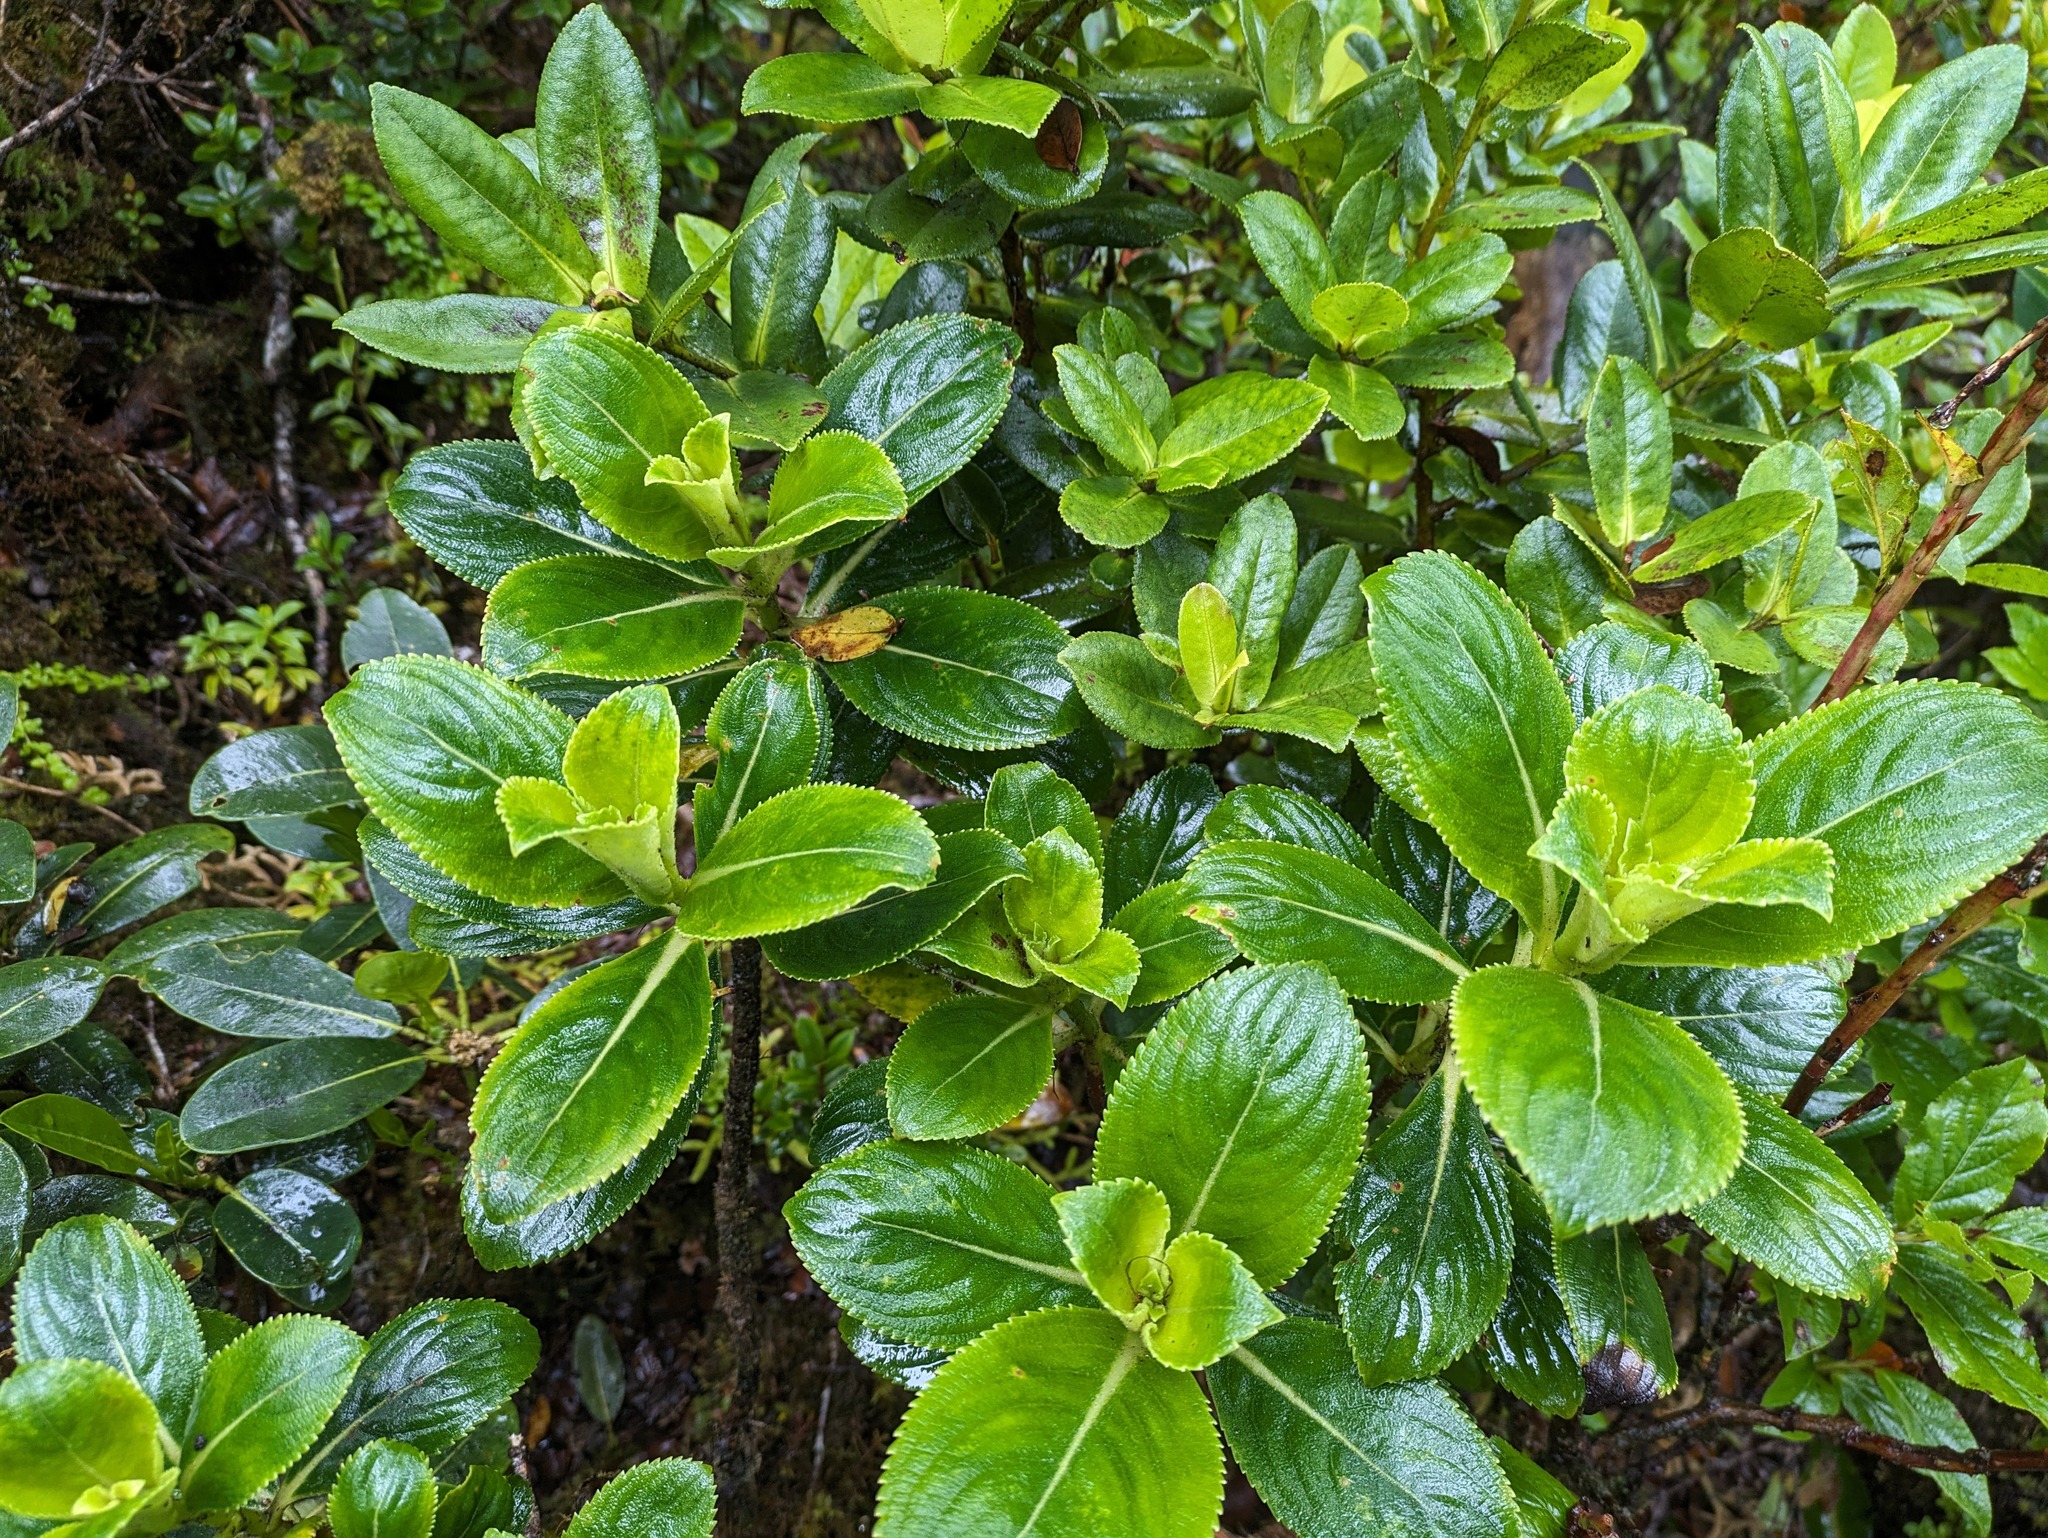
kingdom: Plantae
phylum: Tracheophyta
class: Magnoliopsida
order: Cornales
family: Hydrangeaceae
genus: Hydrangea
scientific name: Hydrangea arguta
